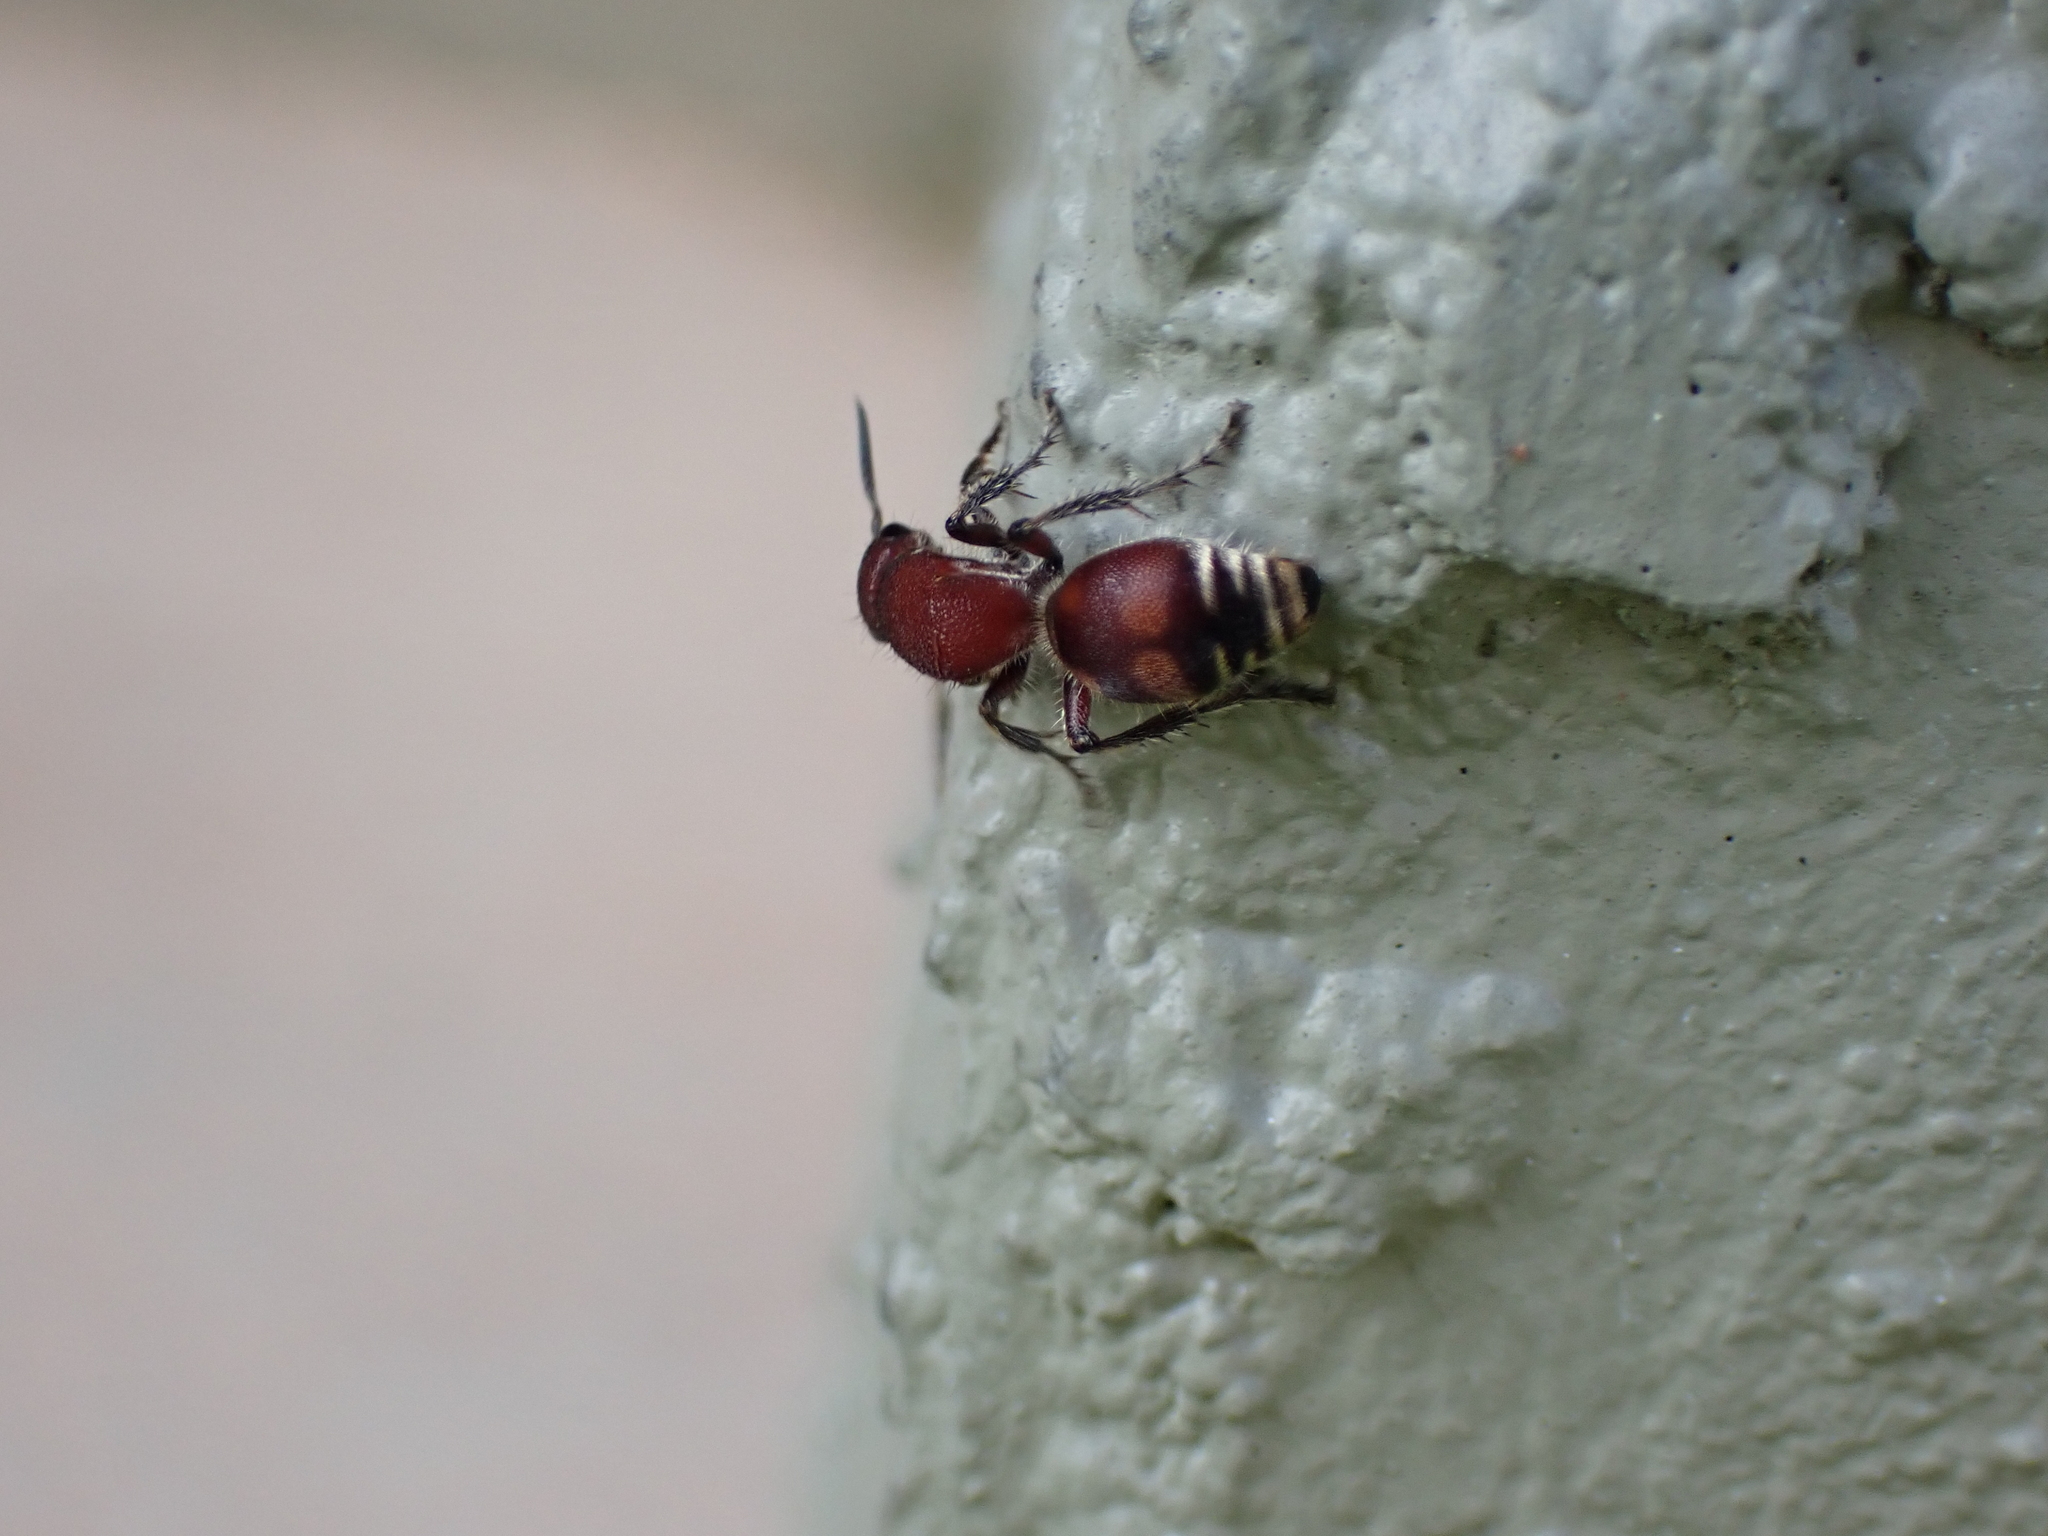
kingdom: Animalia
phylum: Arthropoda
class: Insecta
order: Hymenoptera
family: Mutillidae
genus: Dasymutilla
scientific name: Dasymutilla
